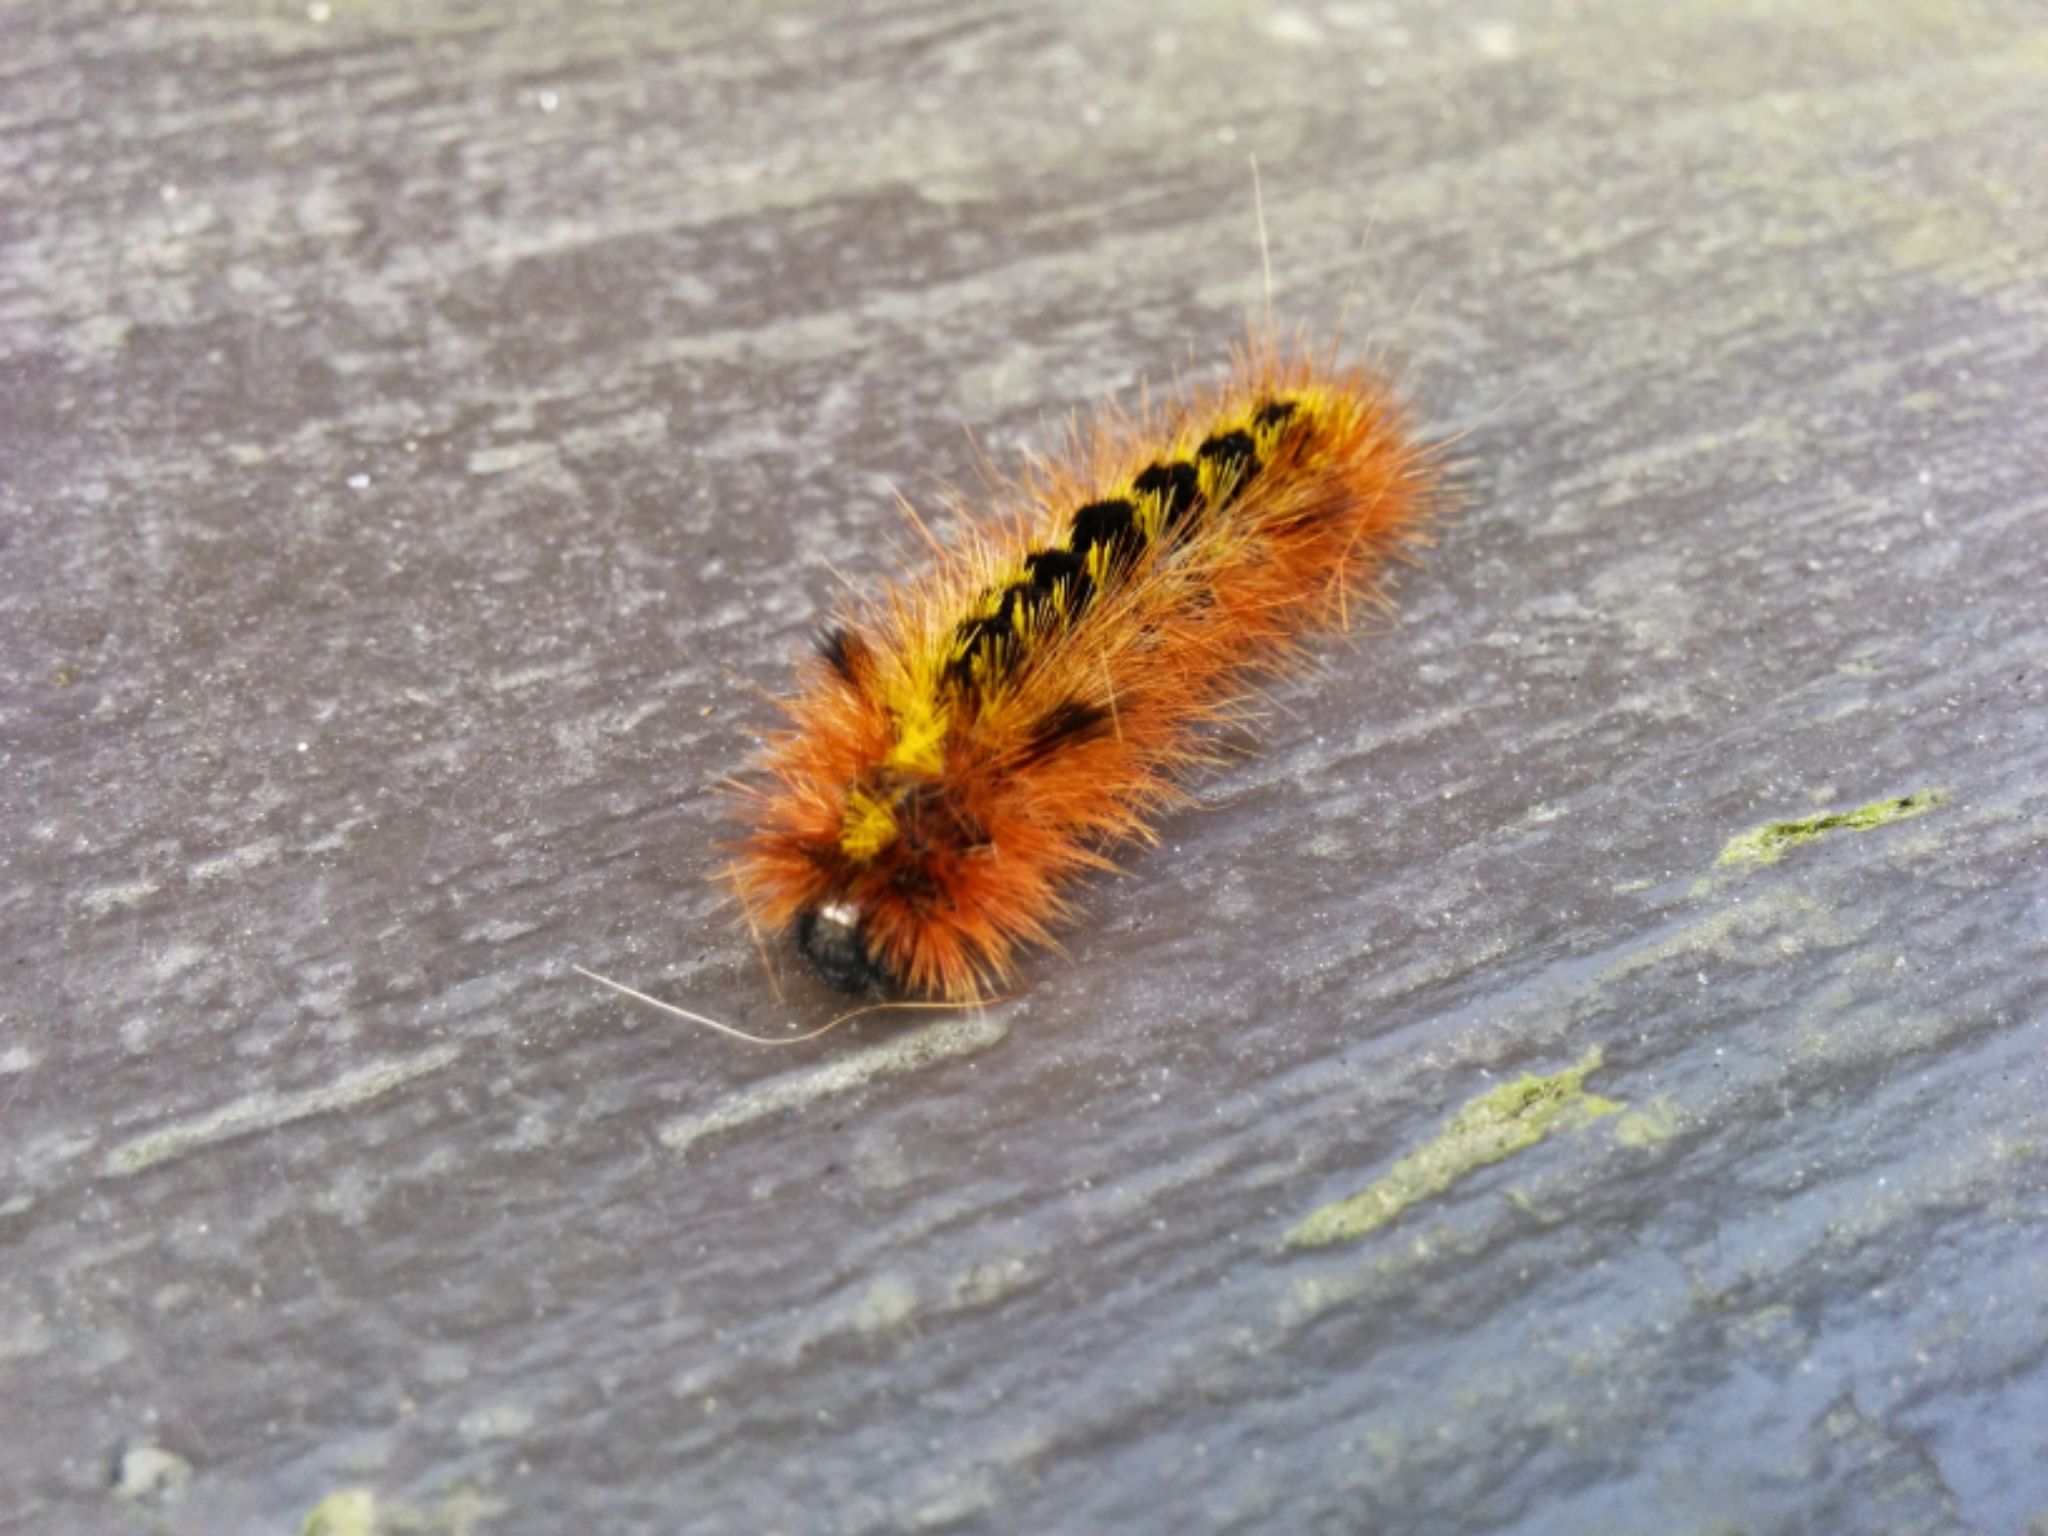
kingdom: Animalia
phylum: Arthropoda
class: Insecta
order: Lepidoptera
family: Erebidae
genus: Lophocampa
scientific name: Lophocampa argentata
